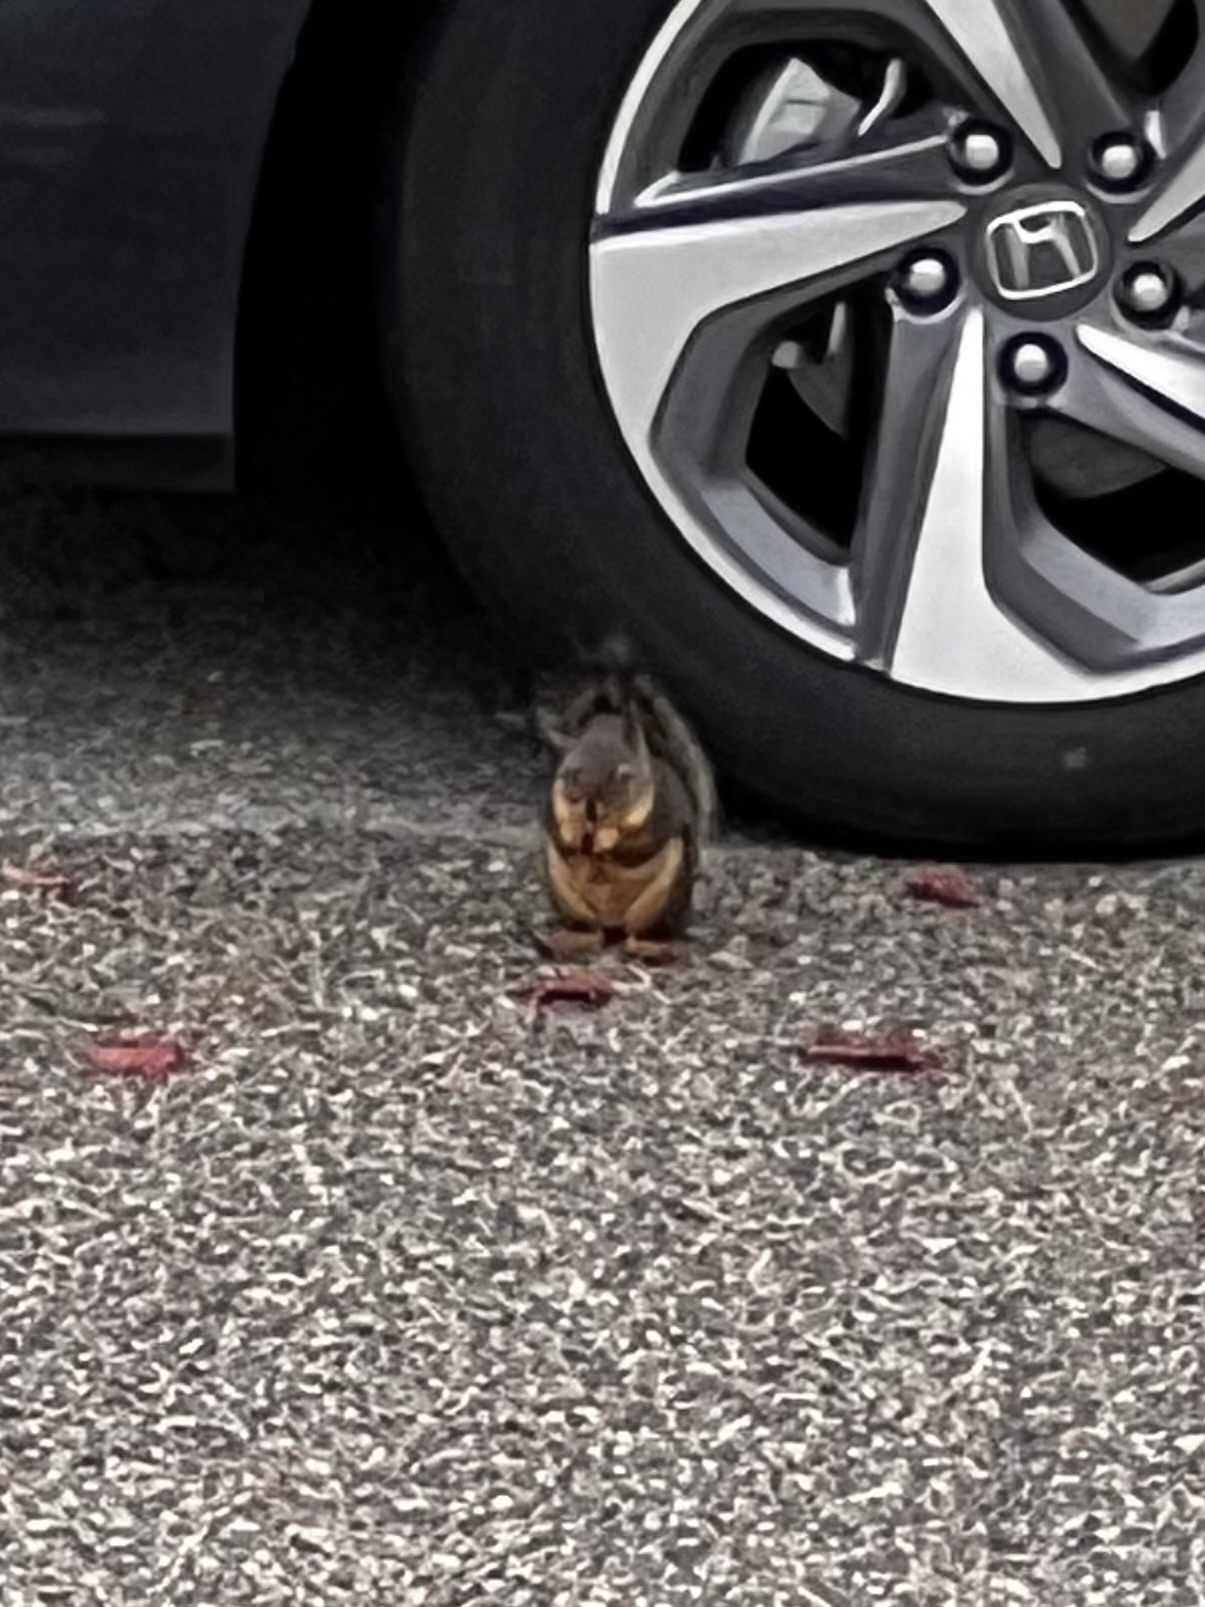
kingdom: Animalia
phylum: Chordata
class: Mammalia
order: Rodentia
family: Sciuridae
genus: Tamiasciurus
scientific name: Tamiasciurus douglasii
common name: Douglas's squirrel
